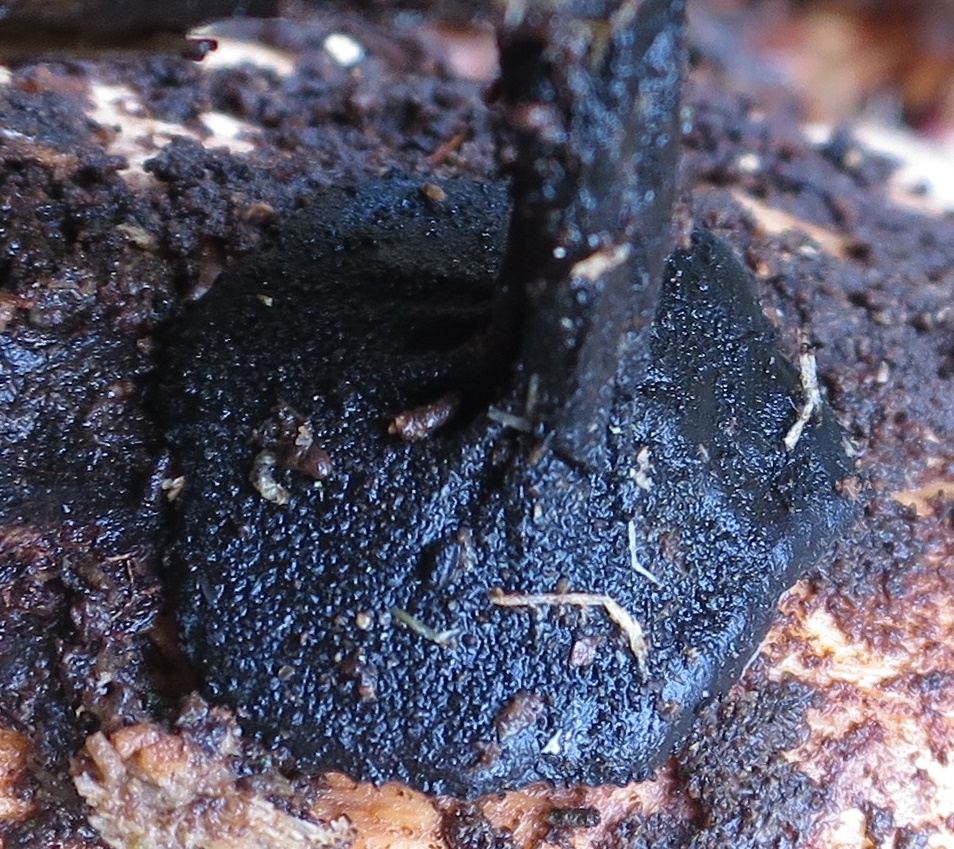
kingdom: Fungi
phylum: Ascomycota
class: Pezizomycetes
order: Pezizales
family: Sarcosomataceae
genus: Sarcosoma
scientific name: Sarcosoma orientale
